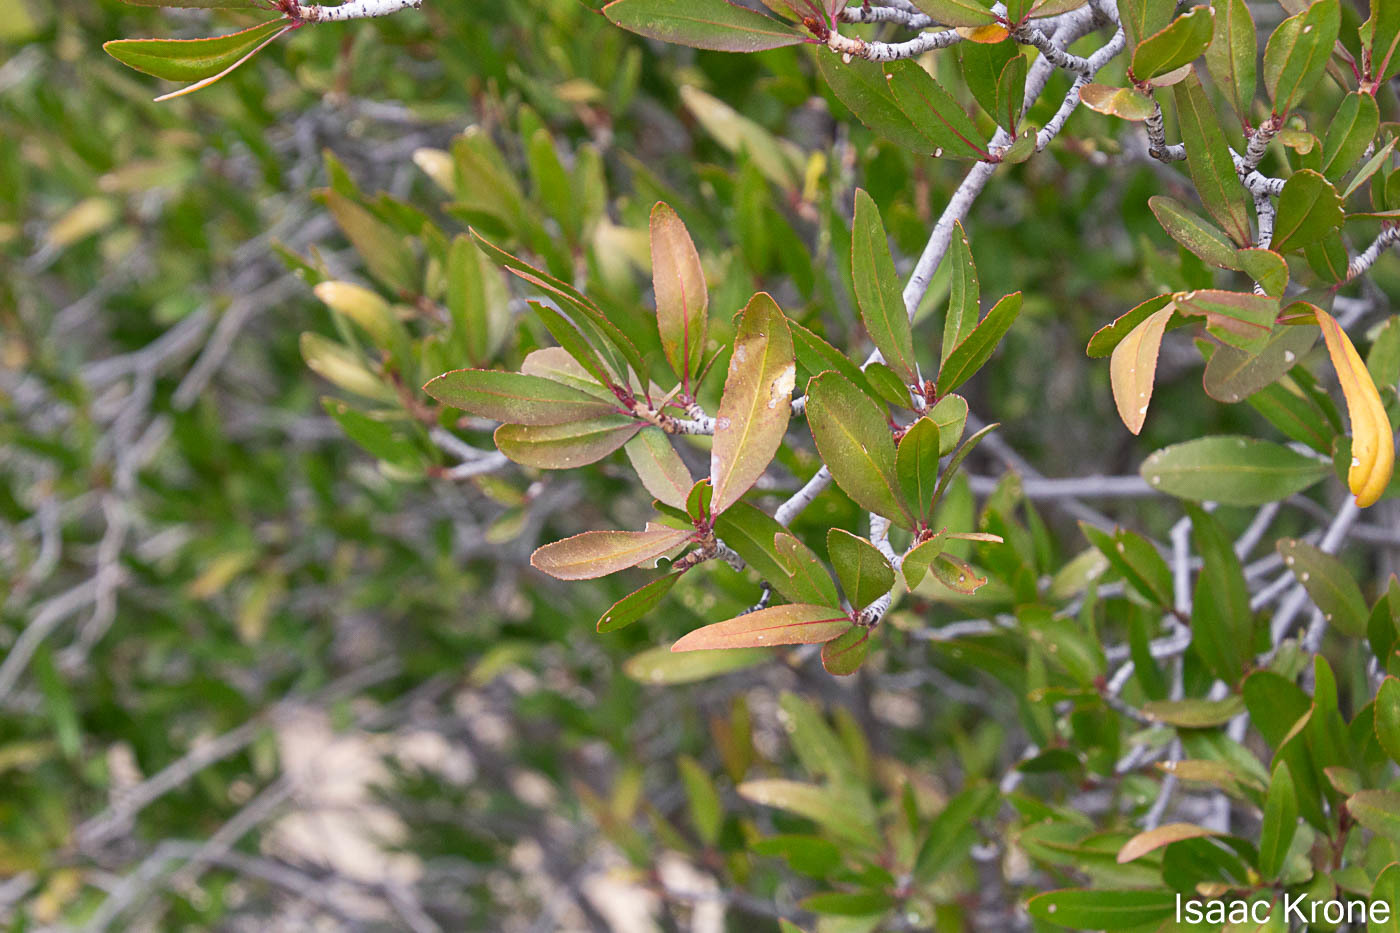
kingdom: Plantae
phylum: Tracheophyta
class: Magnoliopsida
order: Malpighiales
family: Euphorbiaceae
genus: Pleradenophora
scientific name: Pleradenophora bilocularis
